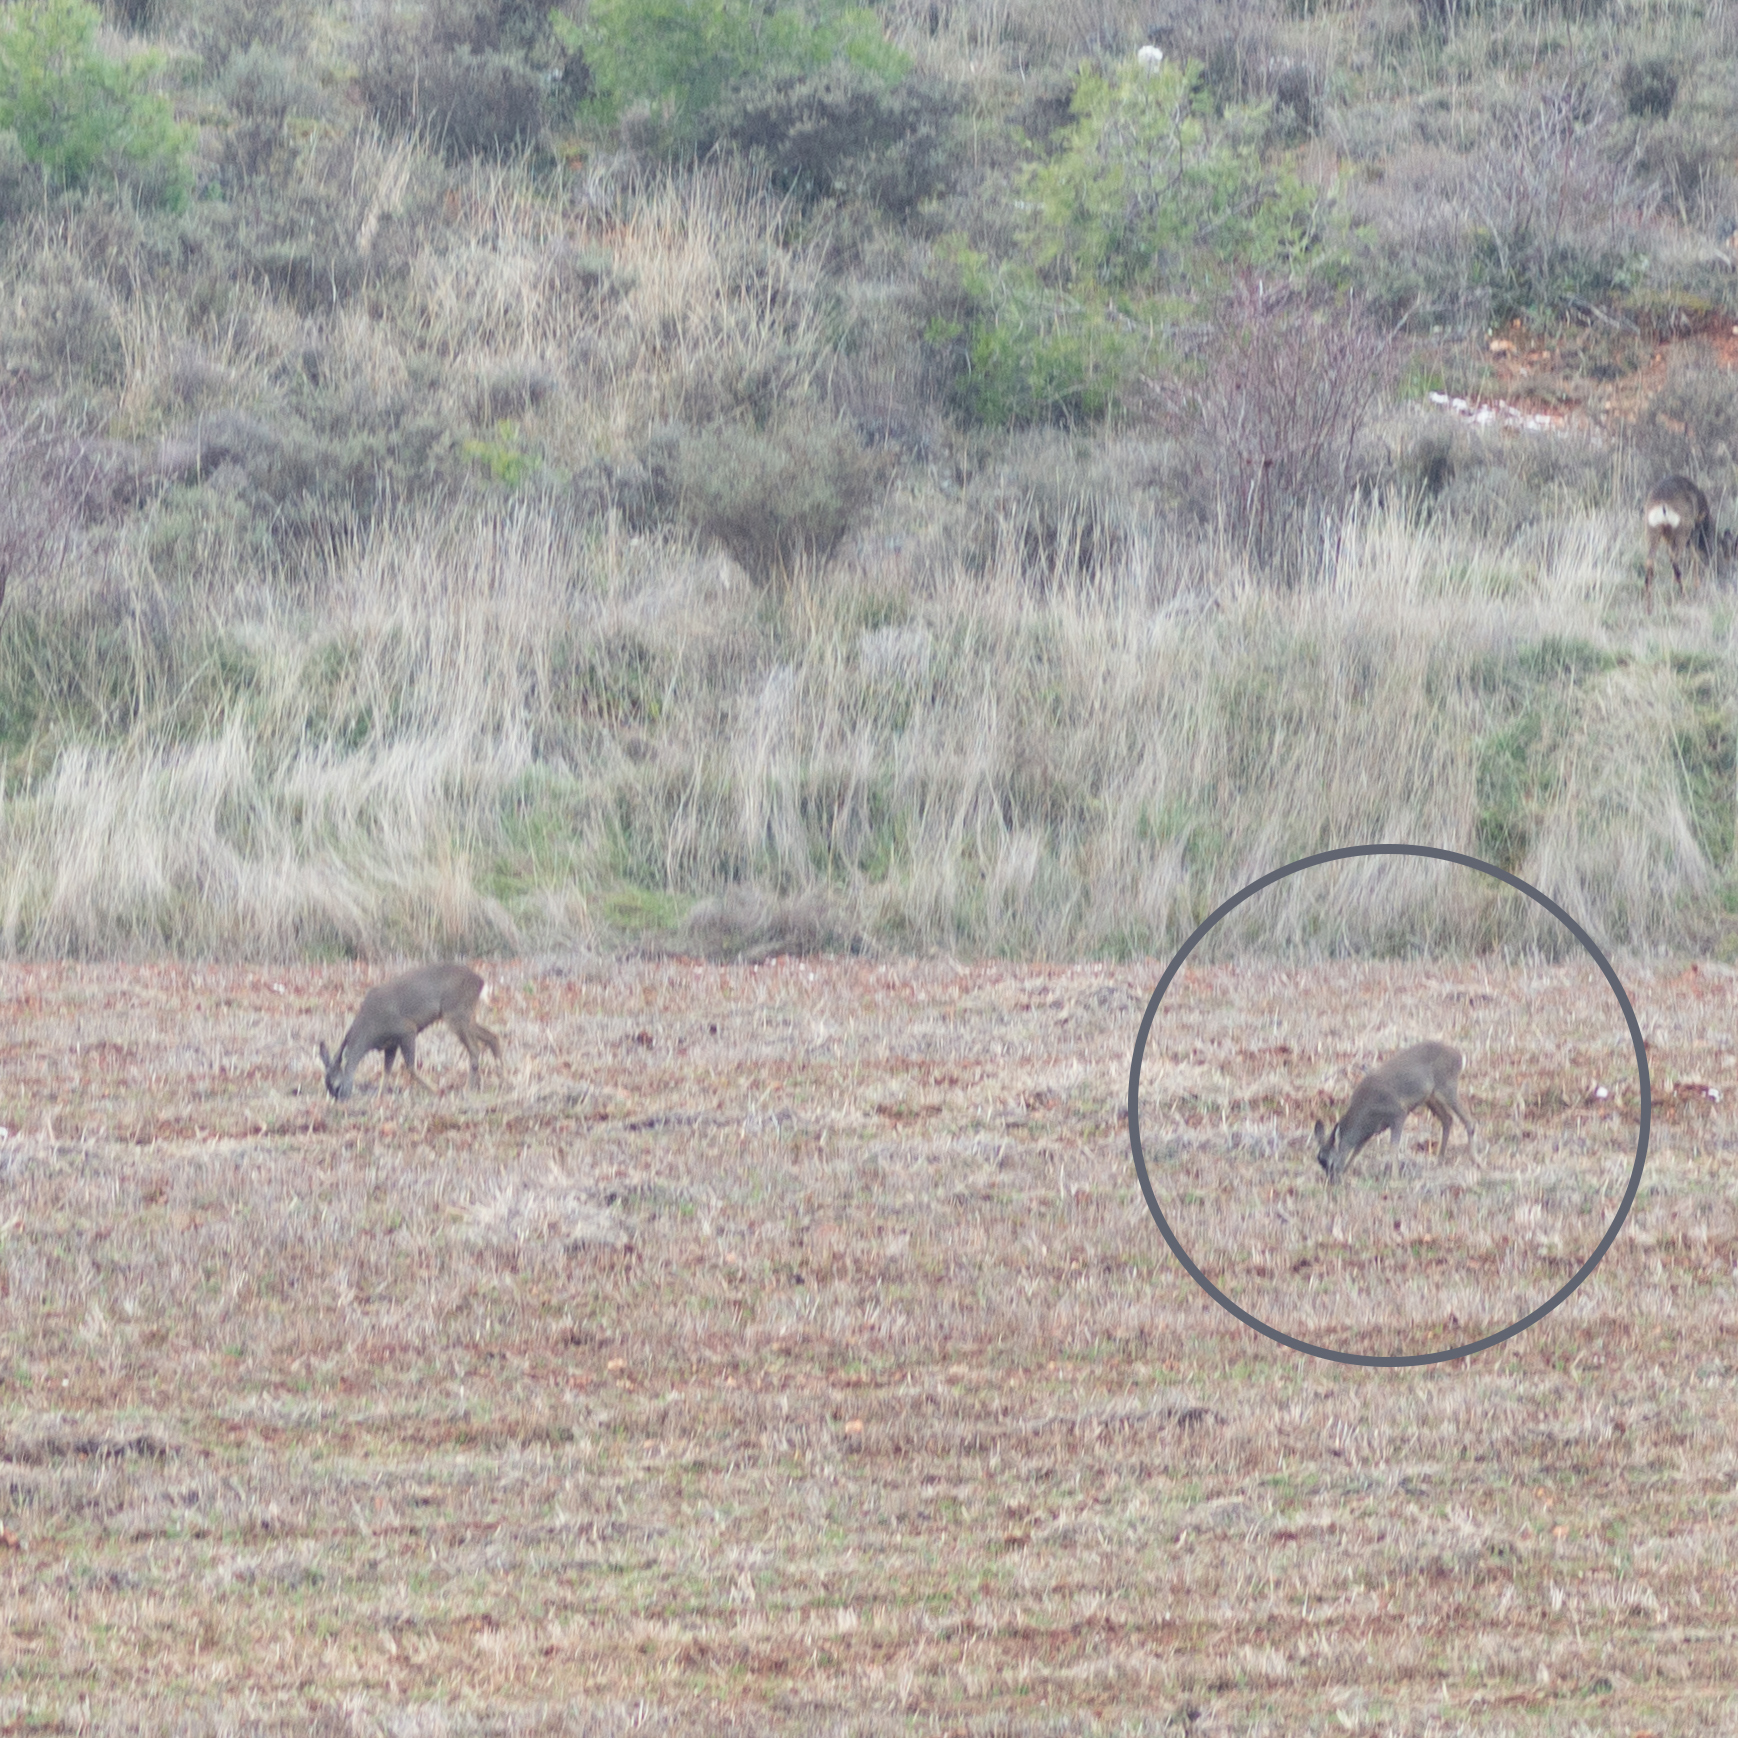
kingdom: Animalia
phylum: Chordata
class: Mammalia
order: Artiodactyla
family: Cervidae
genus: Capreolus
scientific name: Capreolus capreolus
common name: Western roe deer
